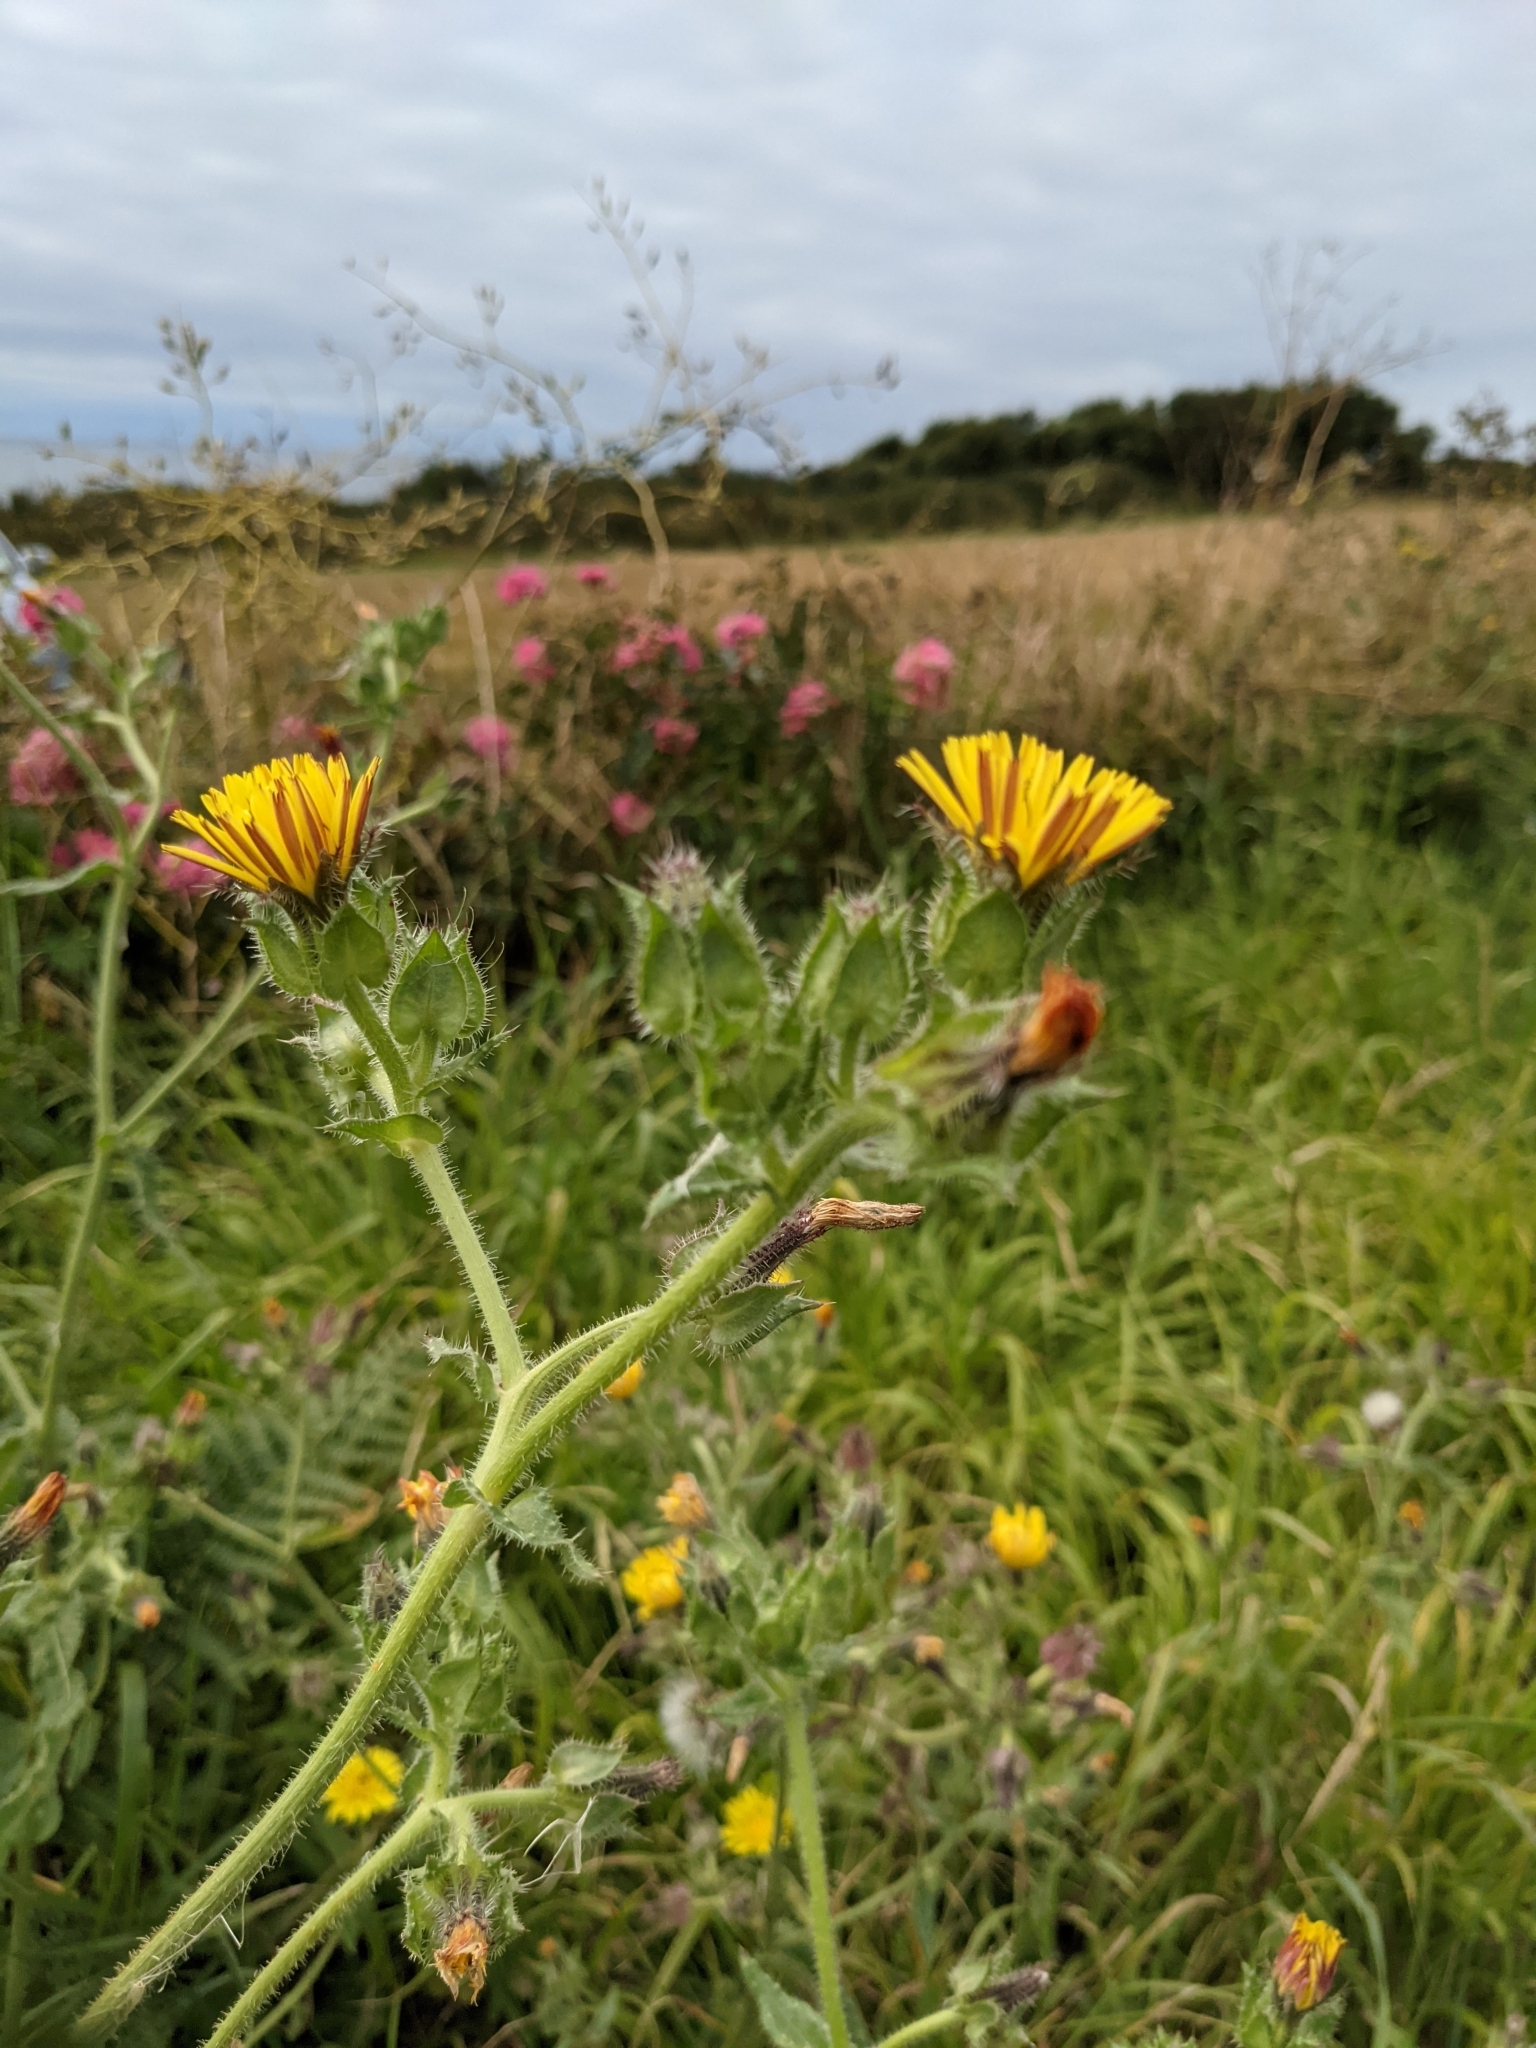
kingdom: Plantae
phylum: Tracheophyta
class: Magnoliopsida
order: Asterales
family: Asteraceae
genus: Helminthotheca
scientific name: Helminthotheca echioides
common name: Ox-tongue
